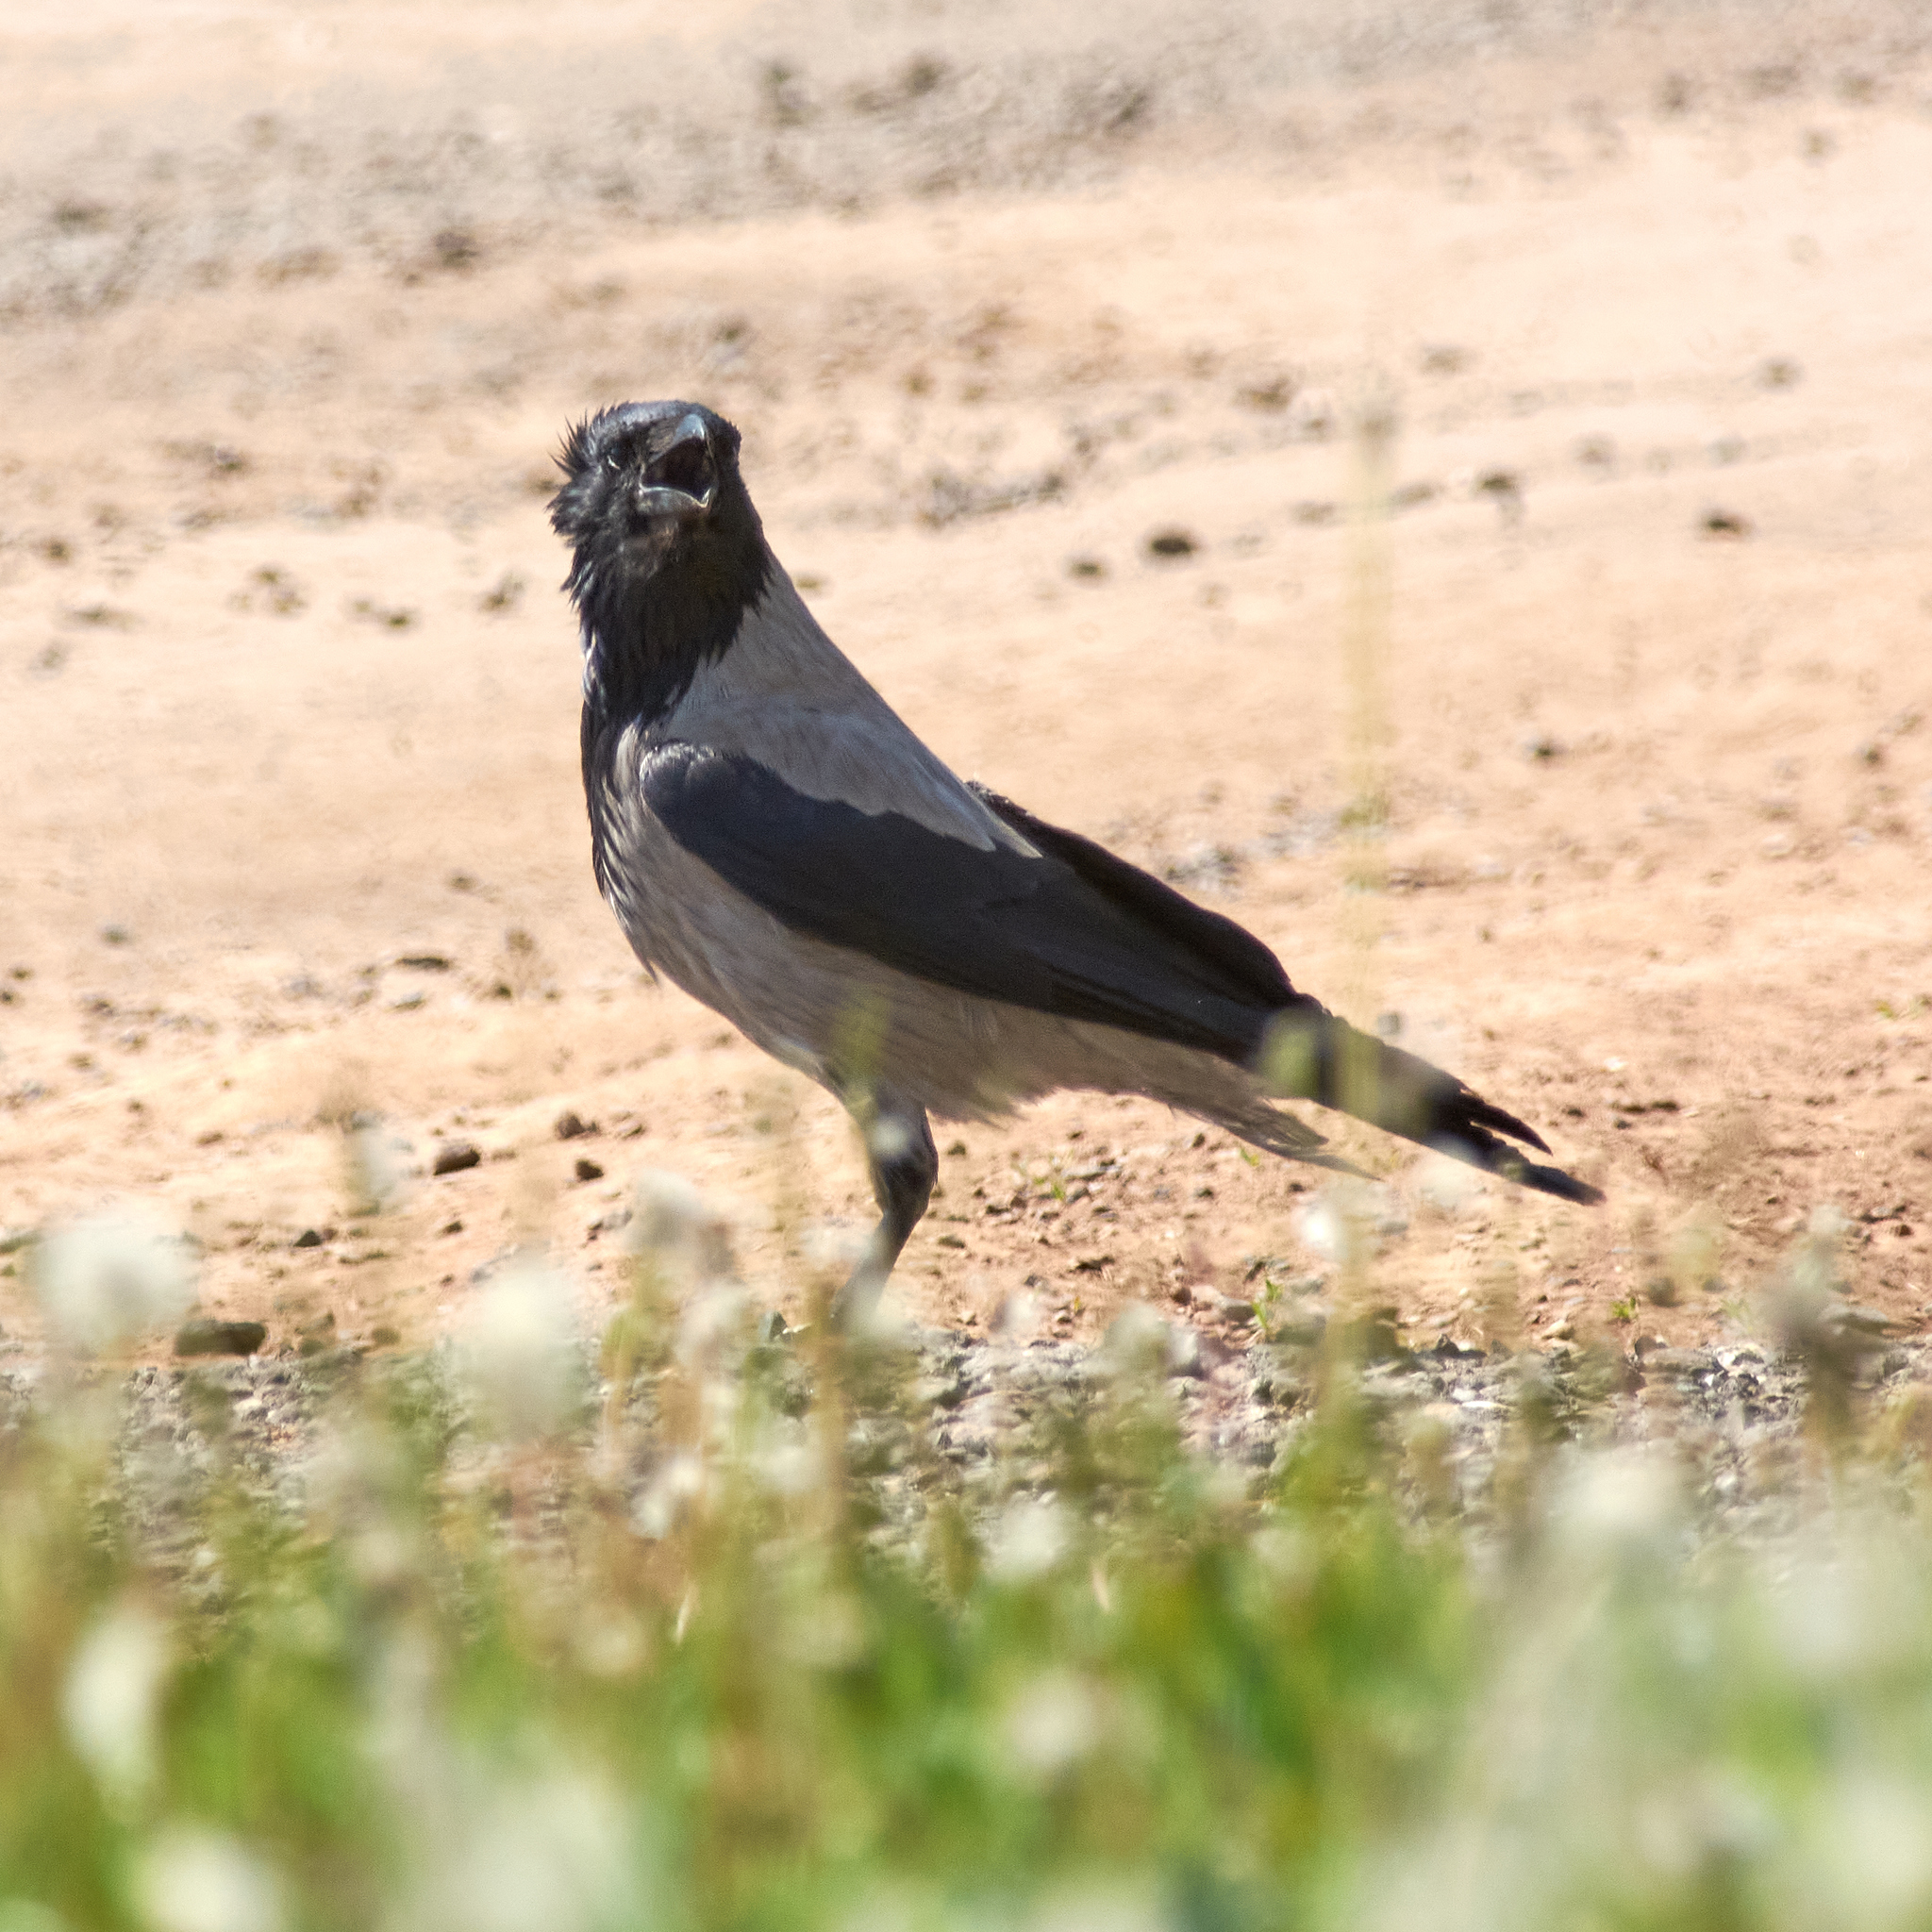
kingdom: Animalia
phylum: Chordata
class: Aves
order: Passeriformes
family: Corvidae
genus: Corvus
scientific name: Corvus cornix
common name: Hooded crow
